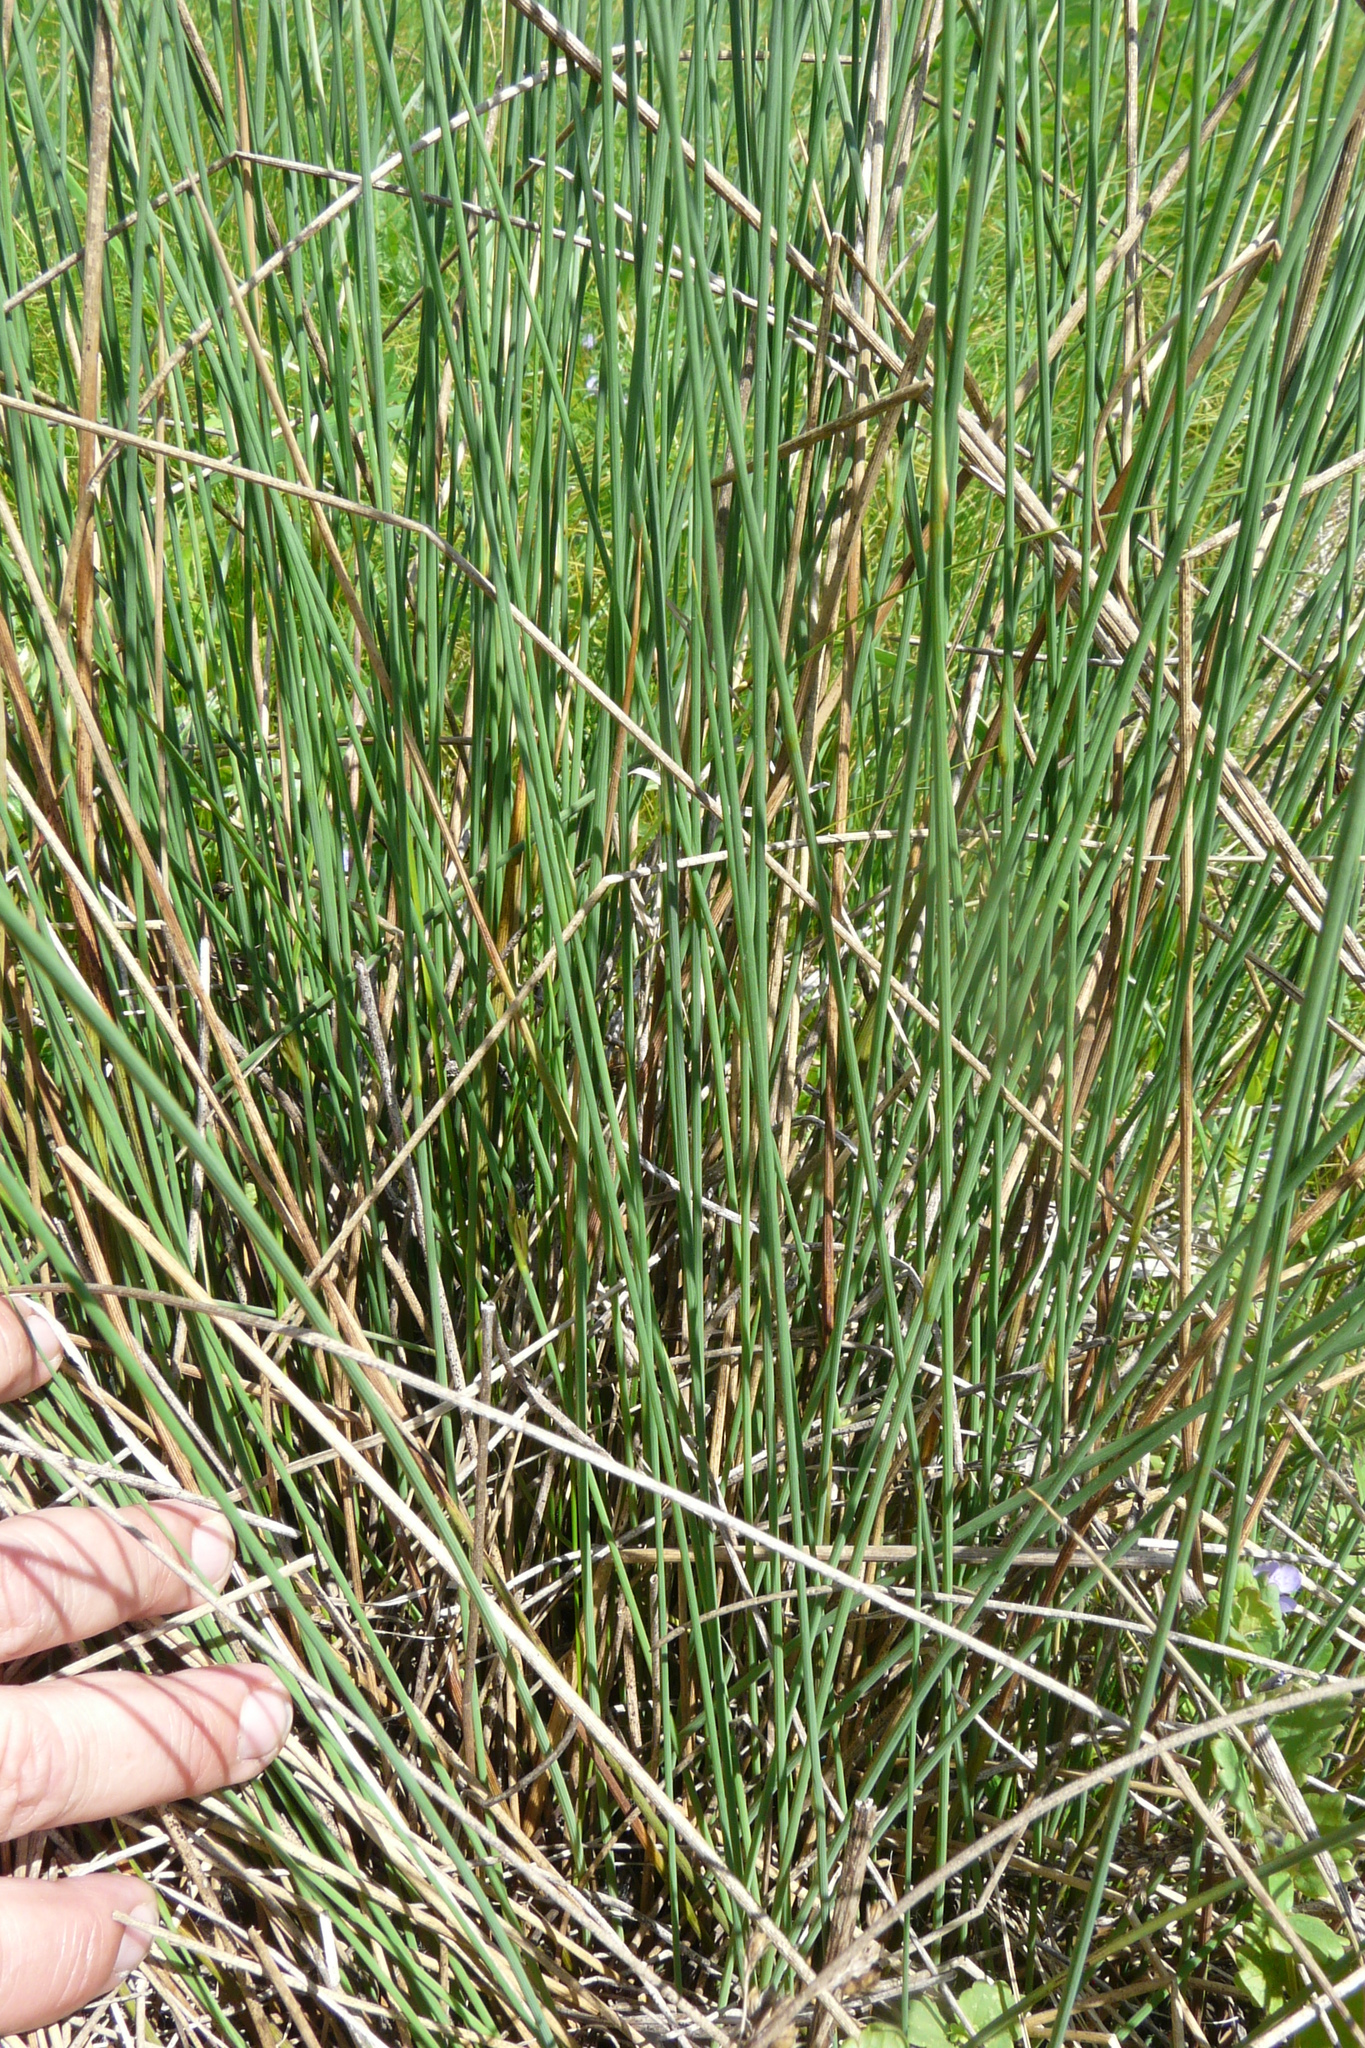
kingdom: Plantae
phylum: Tracheophyta
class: Liliopsida
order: Poales
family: Juncaceae
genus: Juncus
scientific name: Juncus inflexus
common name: Hard rush
